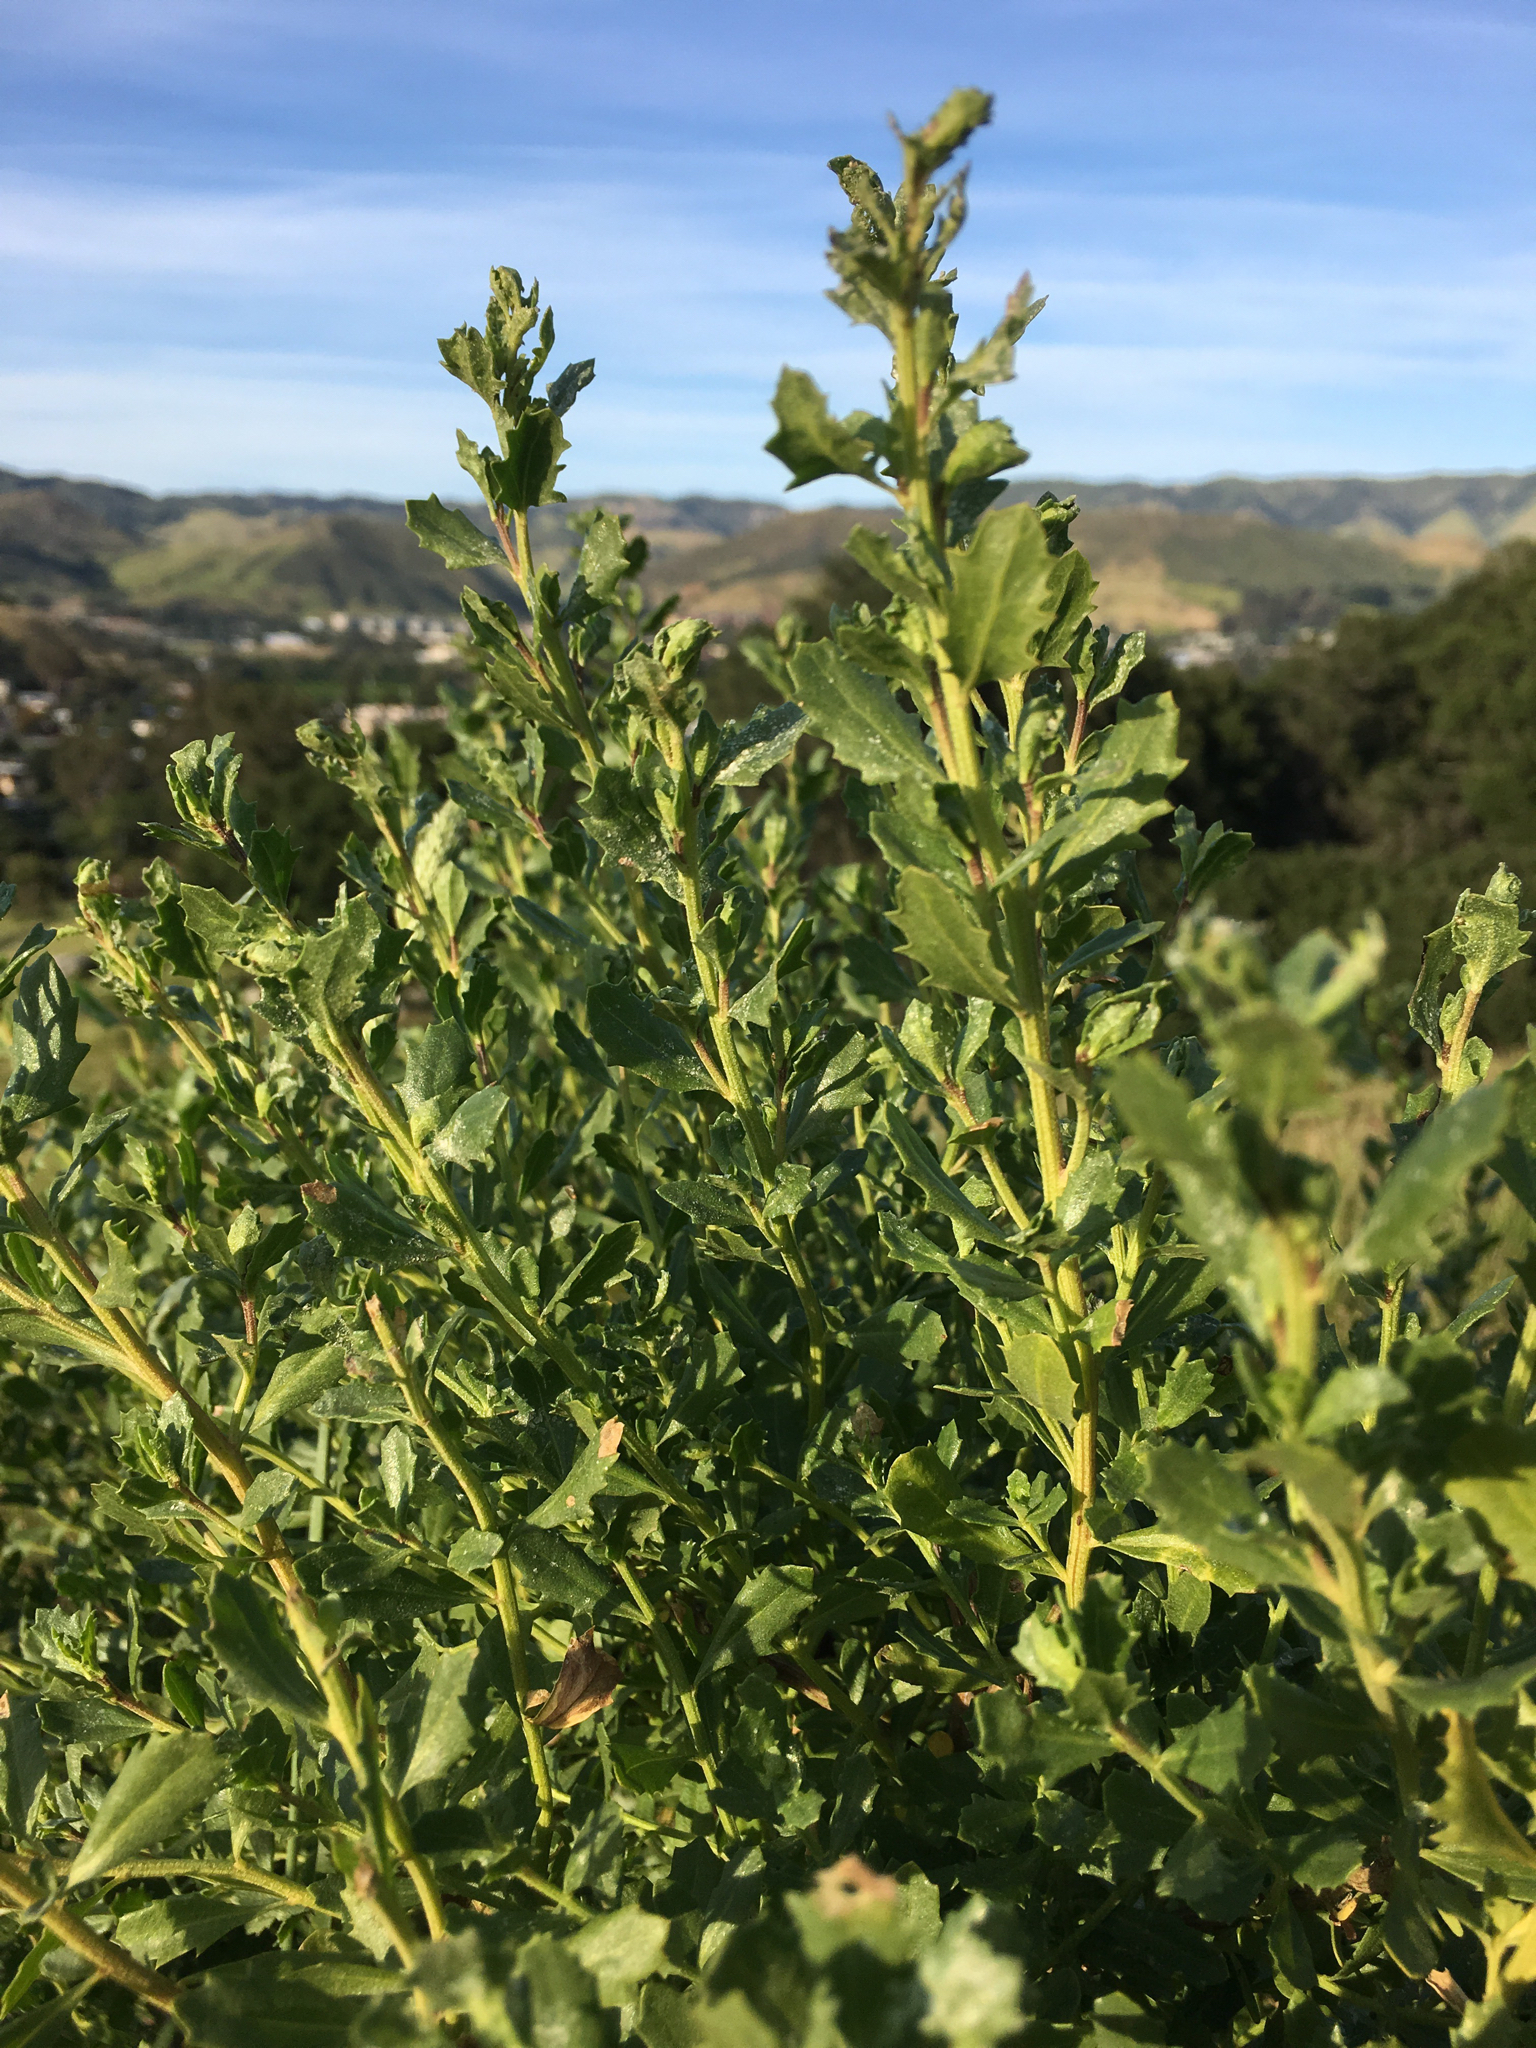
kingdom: Plantae
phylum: Tracheophyta
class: Magnoliopsida
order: Asterales
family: Asteraceae
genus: Baccharis
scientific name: Baccharis pilularis
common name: Coyotebrush
